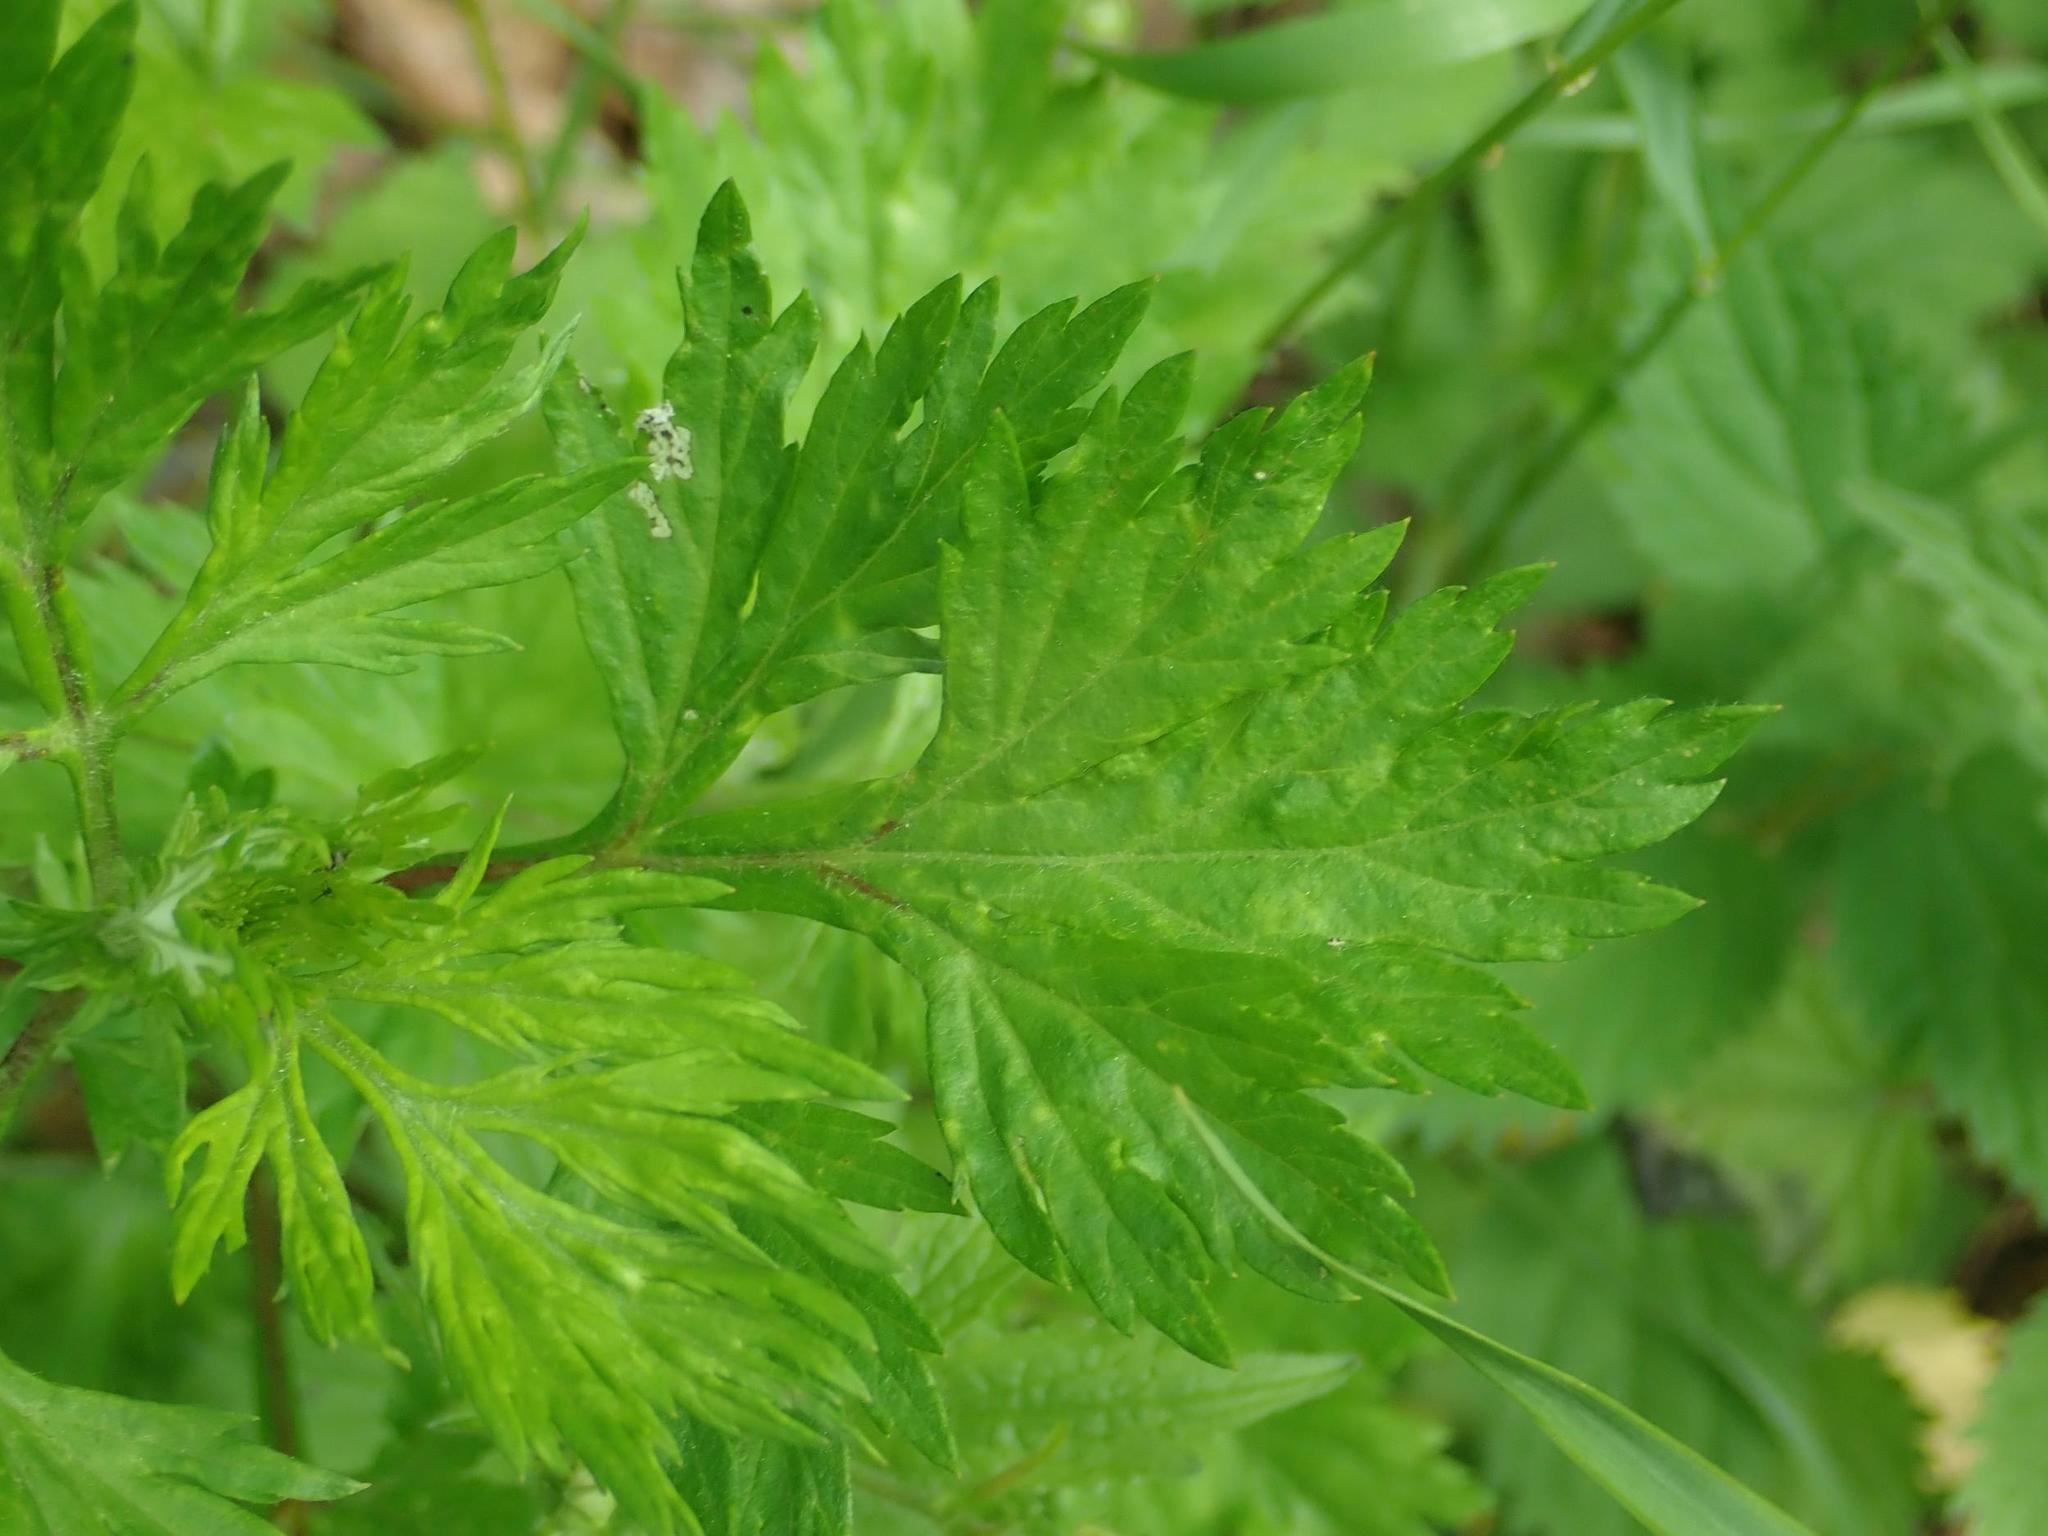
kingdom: Plantae
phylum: Tracheophyta
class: Magnoliopsida
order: Asterales
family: Asteraceae
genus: Artemisia
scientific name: Artemisia vulgaris
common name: Mugwort
